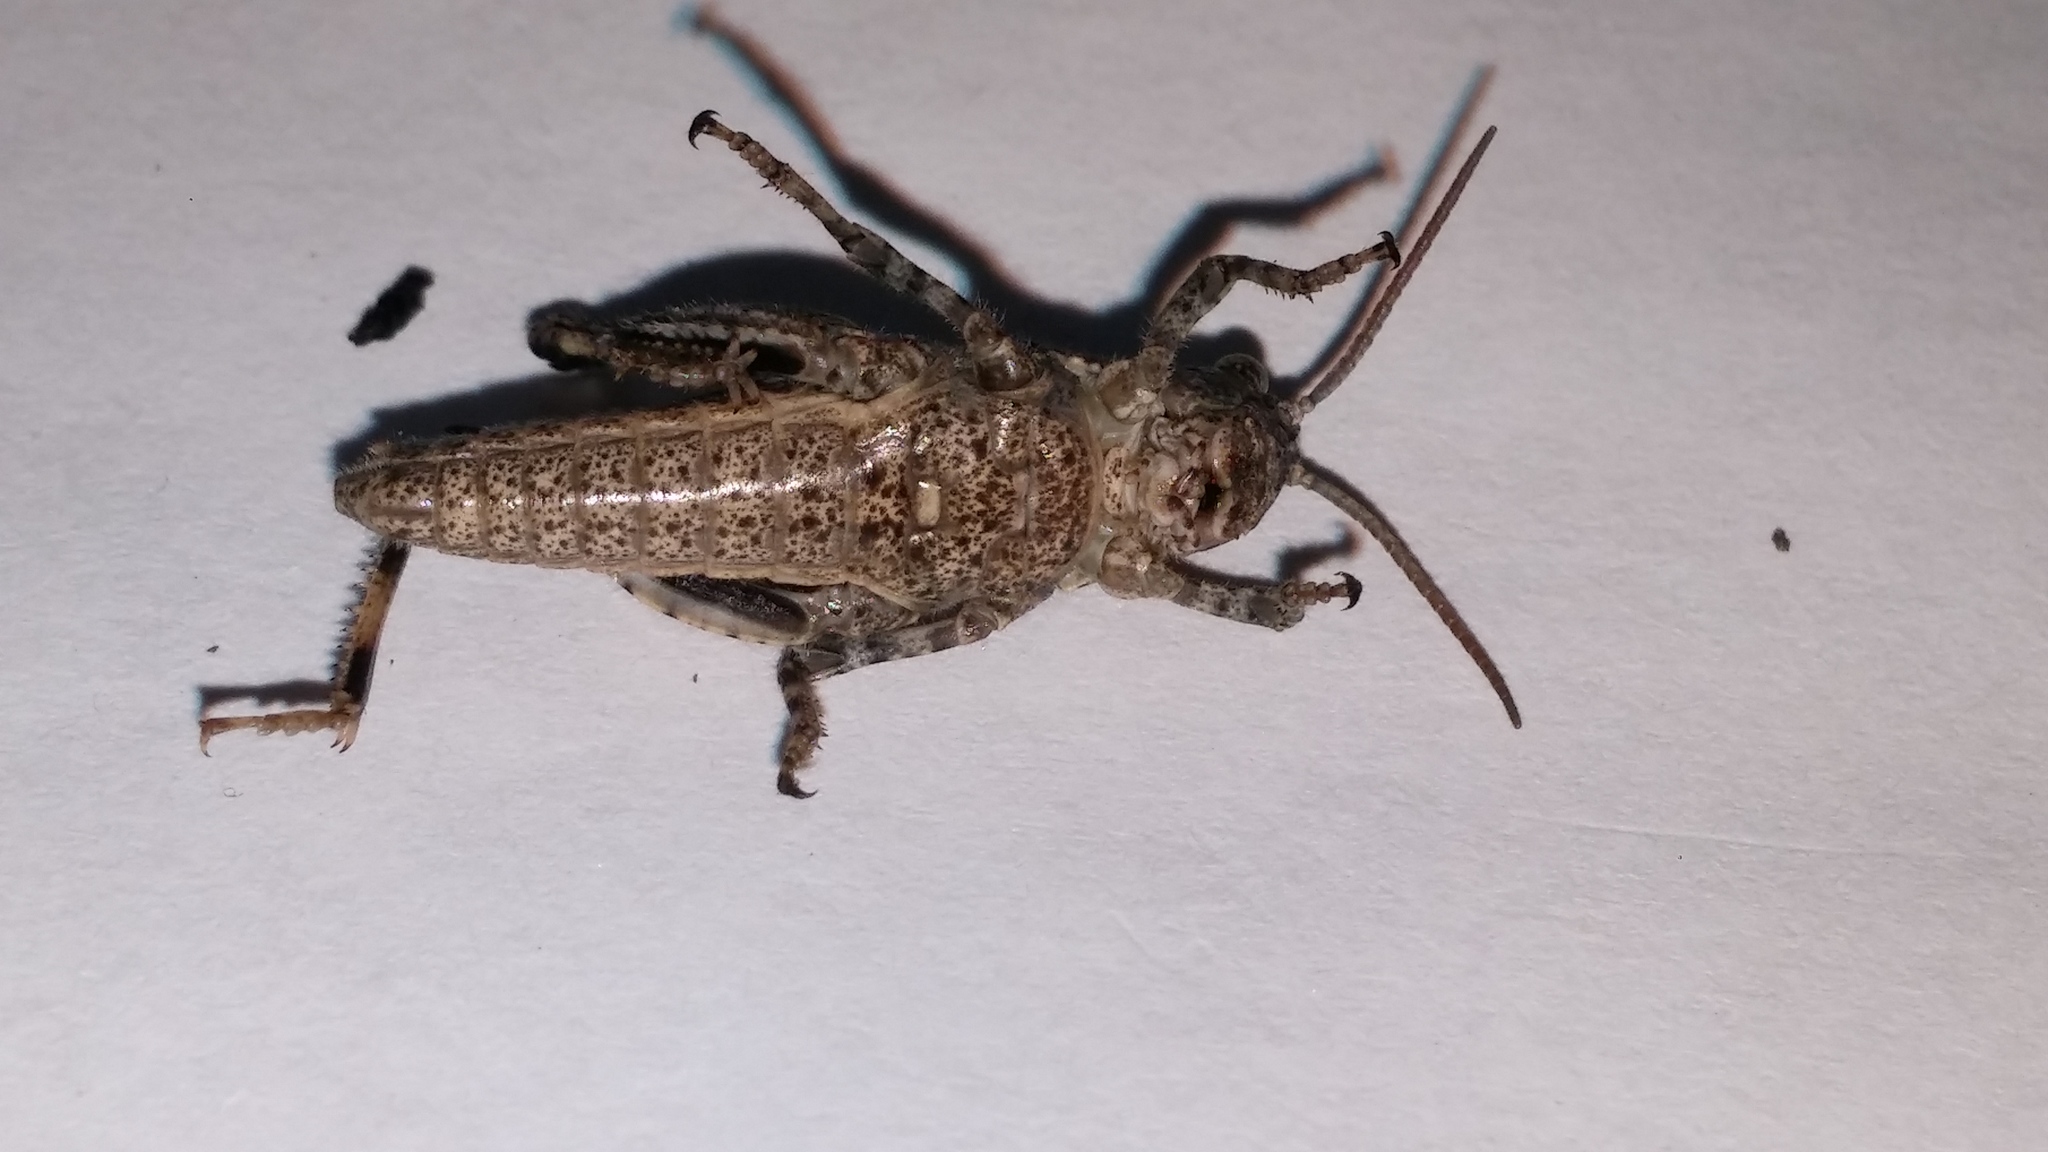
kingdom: Animalia
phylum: Arthropoda
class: Insecta
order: Orthoptera
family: Acrididae
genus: Dissosteira
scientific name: Dissosteira carolina
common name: Carolina grasshopper
